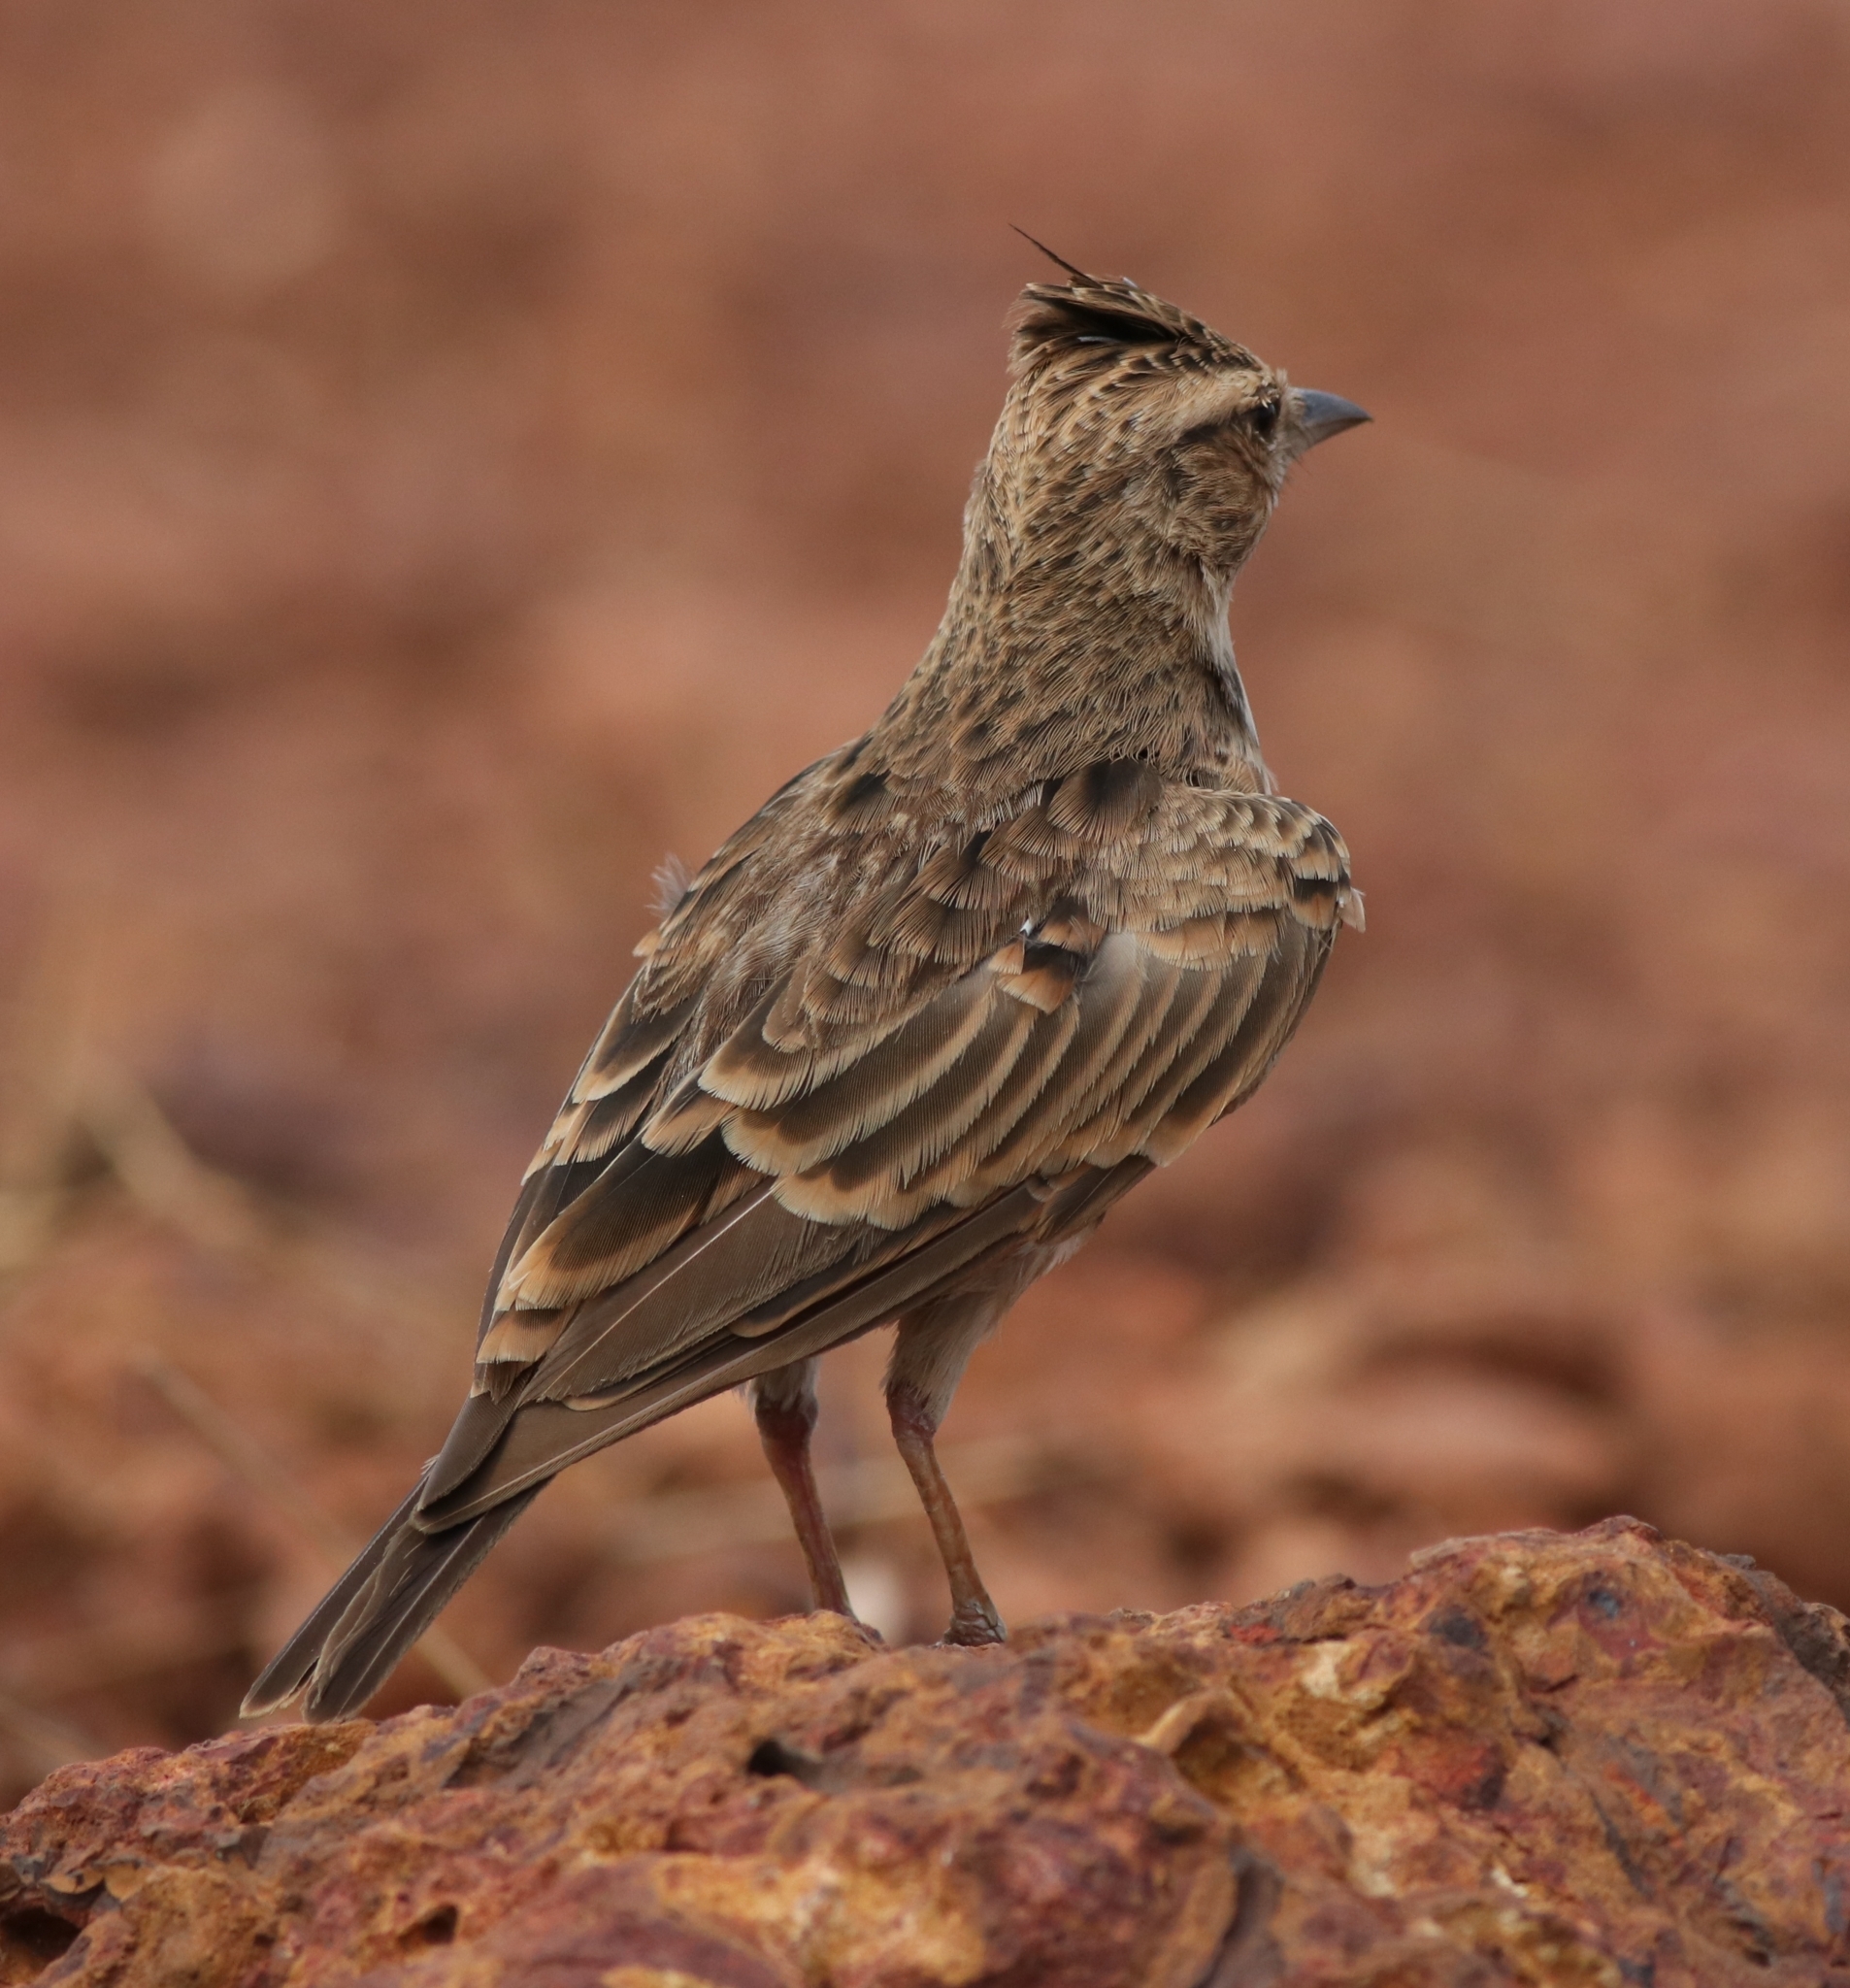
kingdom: Animalia
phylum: Chordata
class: Aves
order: Passeriformes
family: Alaudidae
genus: Galerida
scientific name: Galerida malabarica
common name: Malabar lark
